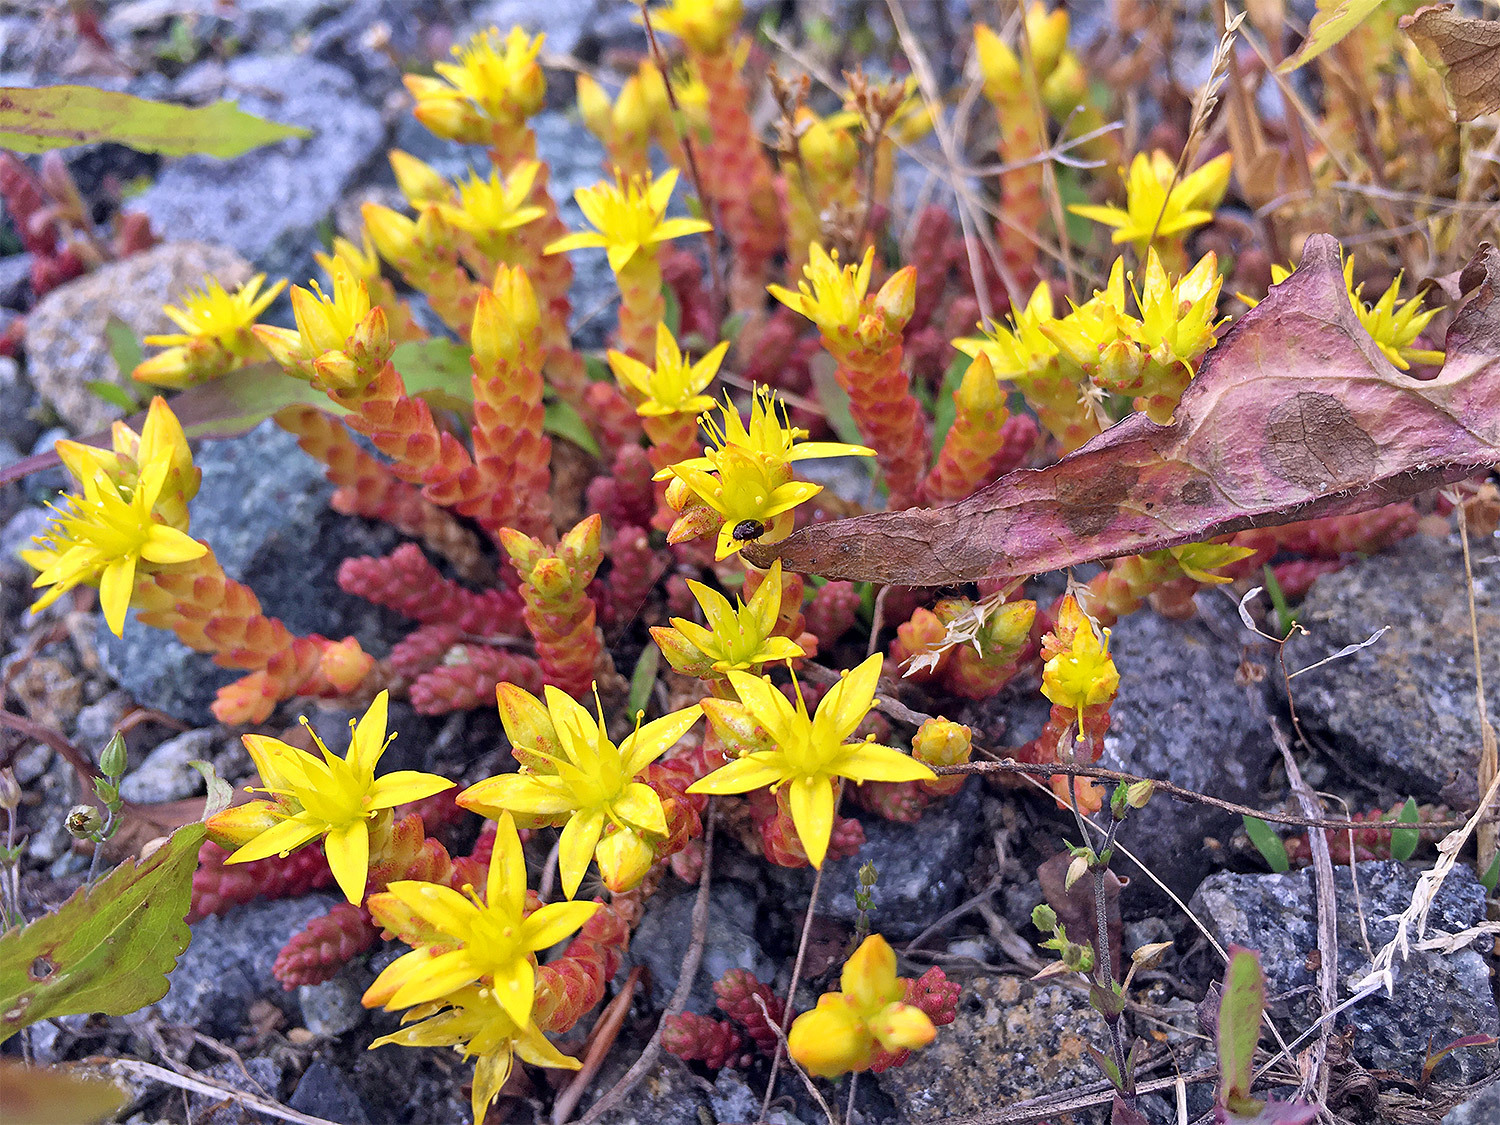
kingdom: Plantae
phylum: Tracheophyta
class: Magnoliopsida
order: Saxifragales
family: Crassulaceae
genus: Sedum
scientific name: Sedum acre
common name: Biting stonecrop
